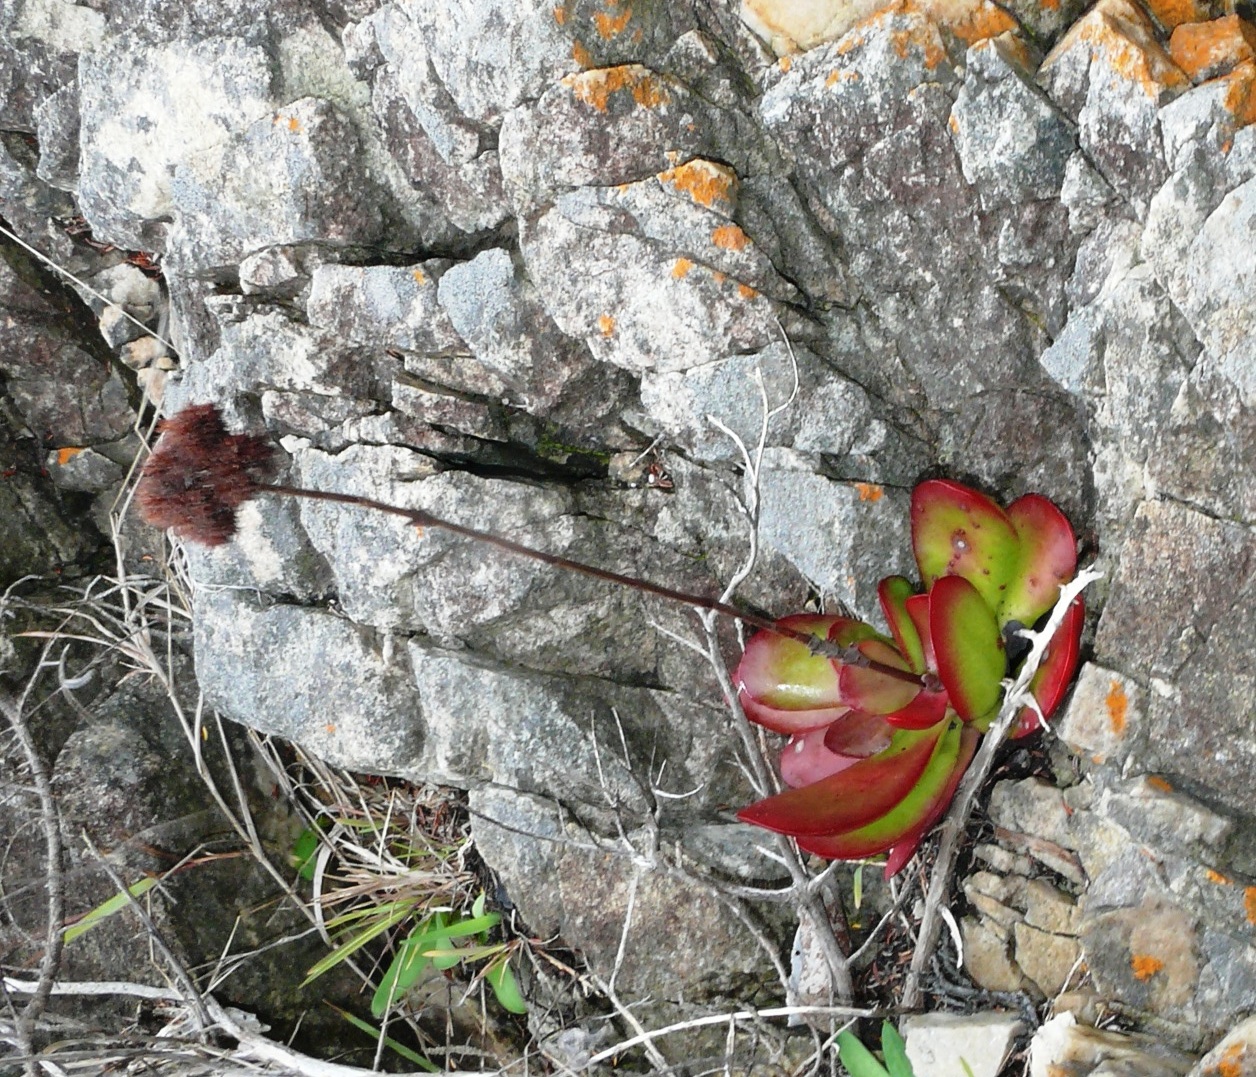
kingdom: Plantae
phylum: Tracheophyta
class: Magnoliopsida
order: Saxifragales
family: Crassulaceae
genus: Crassula
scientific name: Crassula nudicaulis
